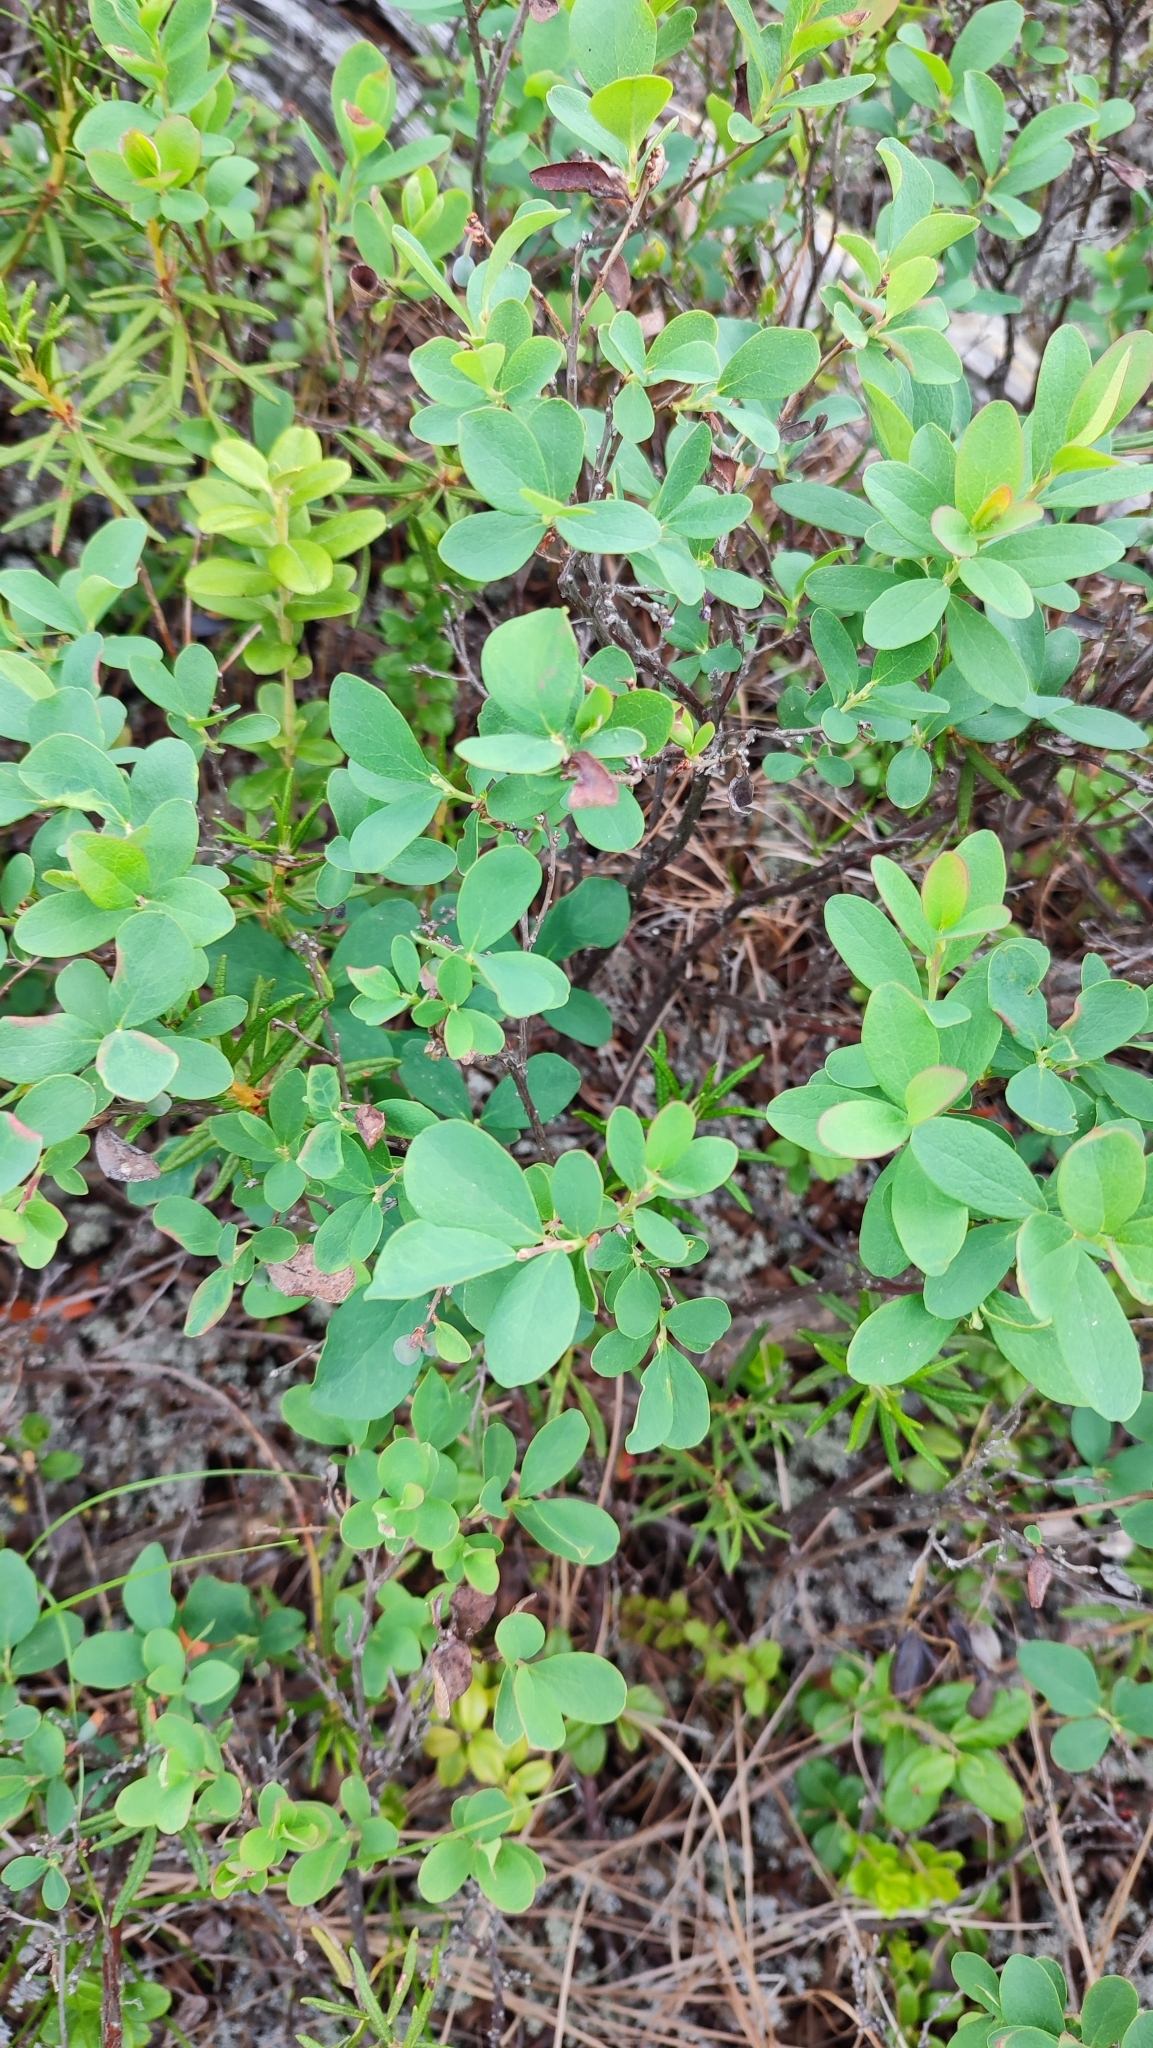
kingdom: Plantae
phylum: Tracheophyta
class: Magnoliopsida
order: Ericales
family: Ericaceae
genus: Vaccinium
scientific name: Vaccinium uliginosum
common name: Bog bilberry
